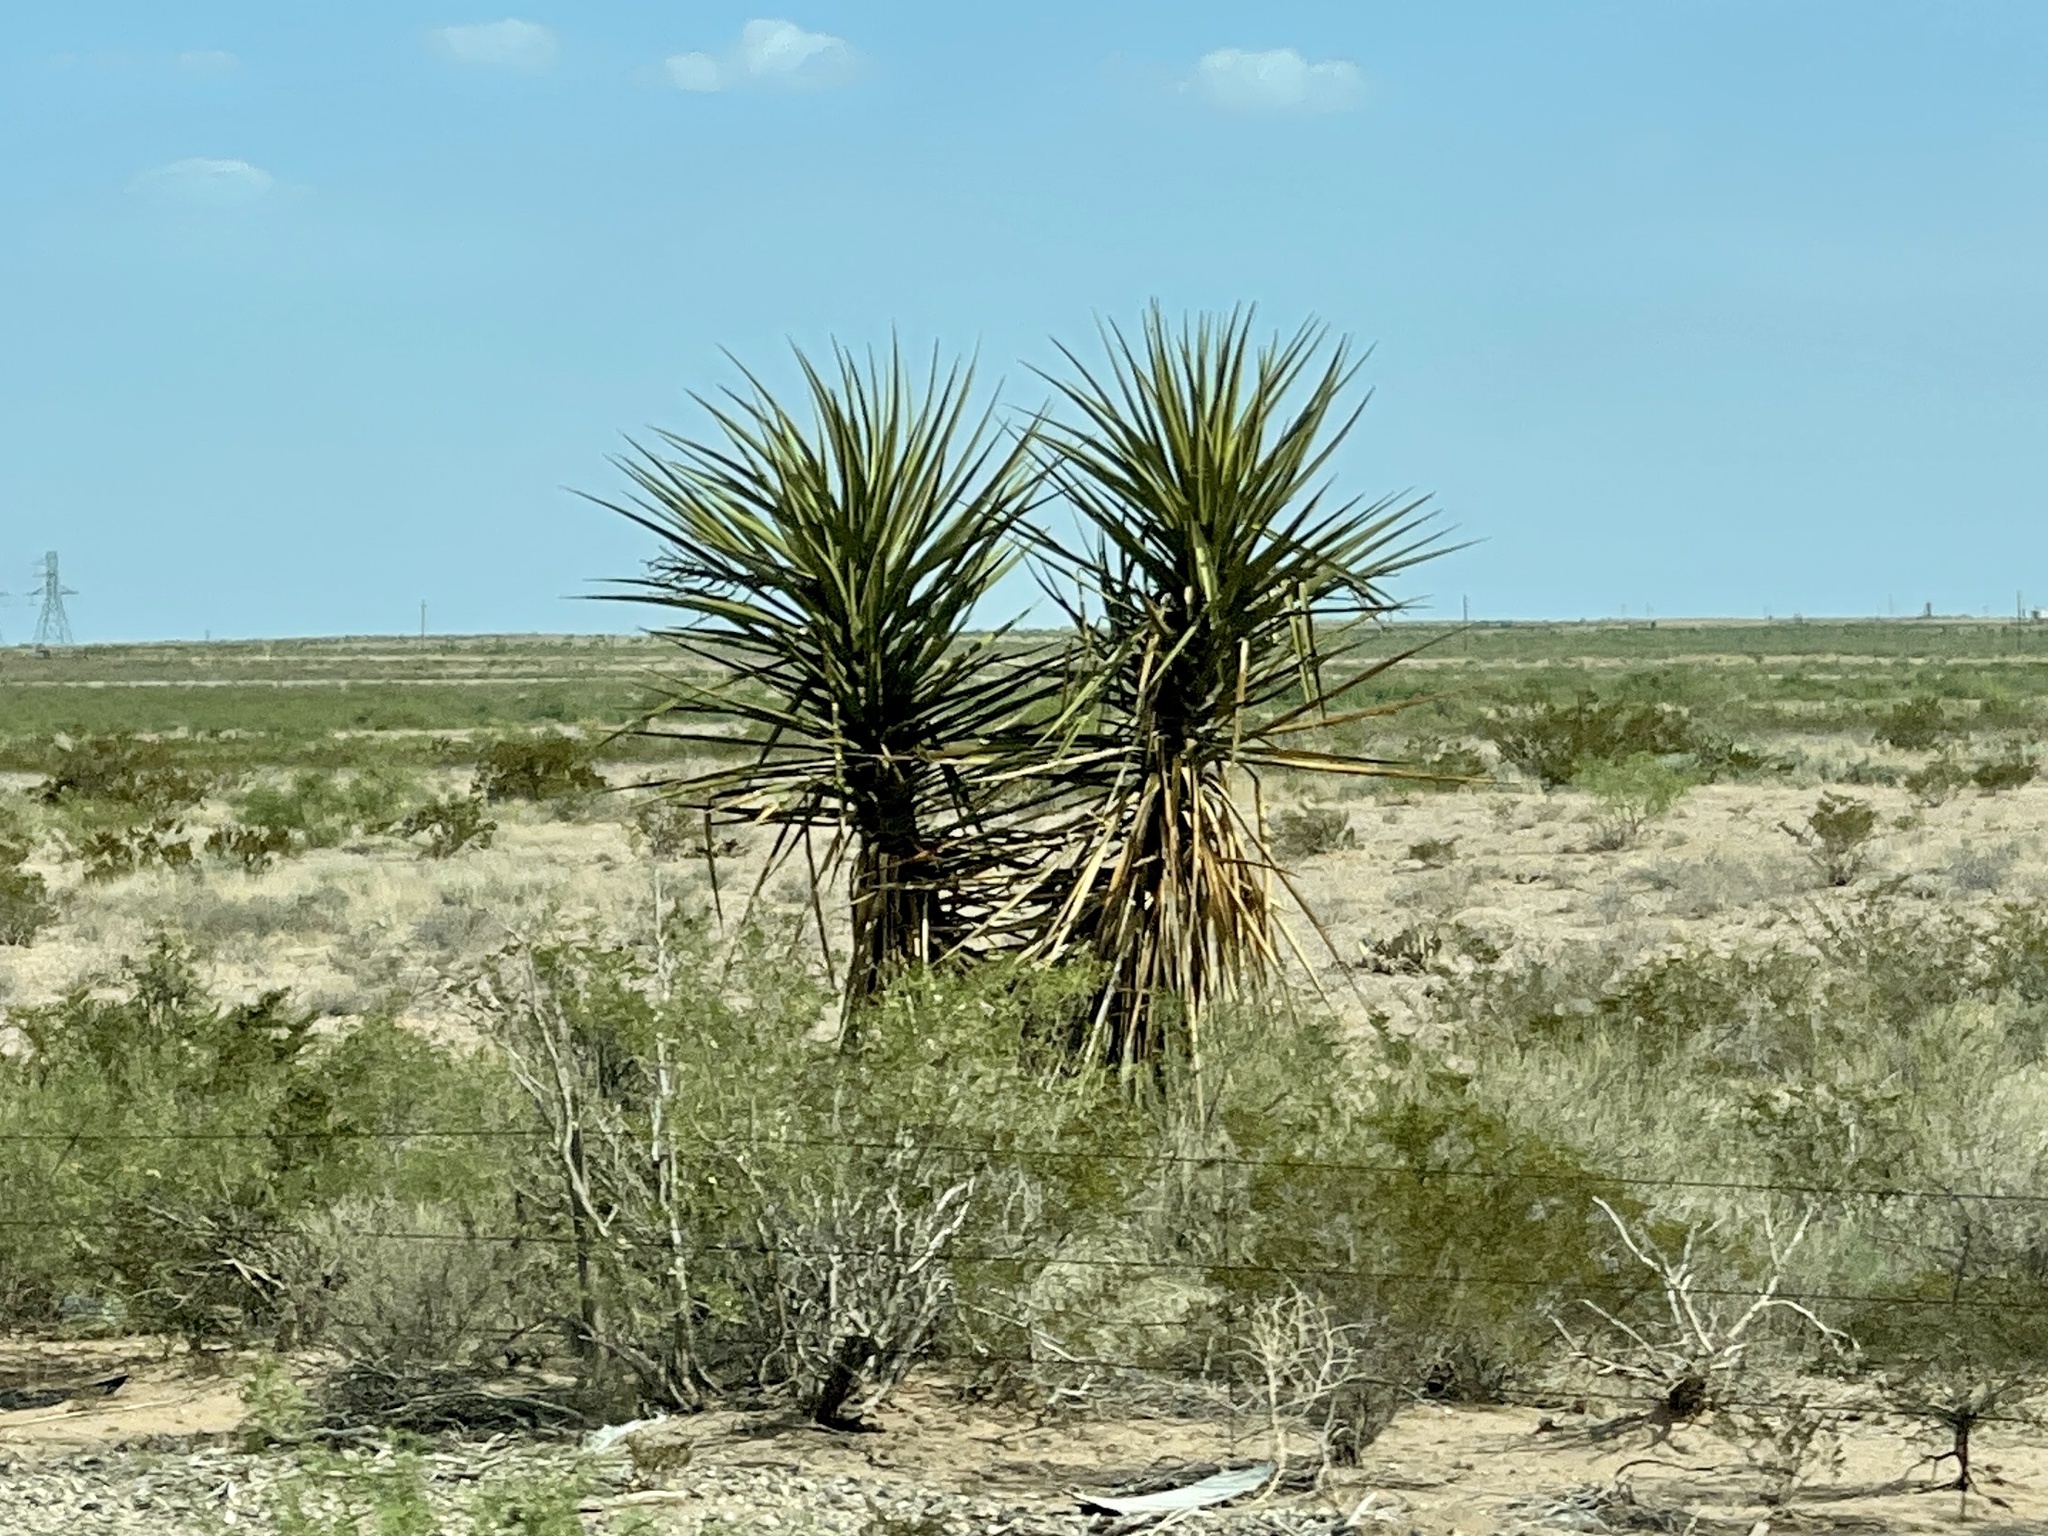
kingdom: Plantae
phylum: Tracheophyta
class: Liliopsida
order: Asparagales
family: Asparagaceae
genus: Yucca
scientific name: Yucca treculiana
